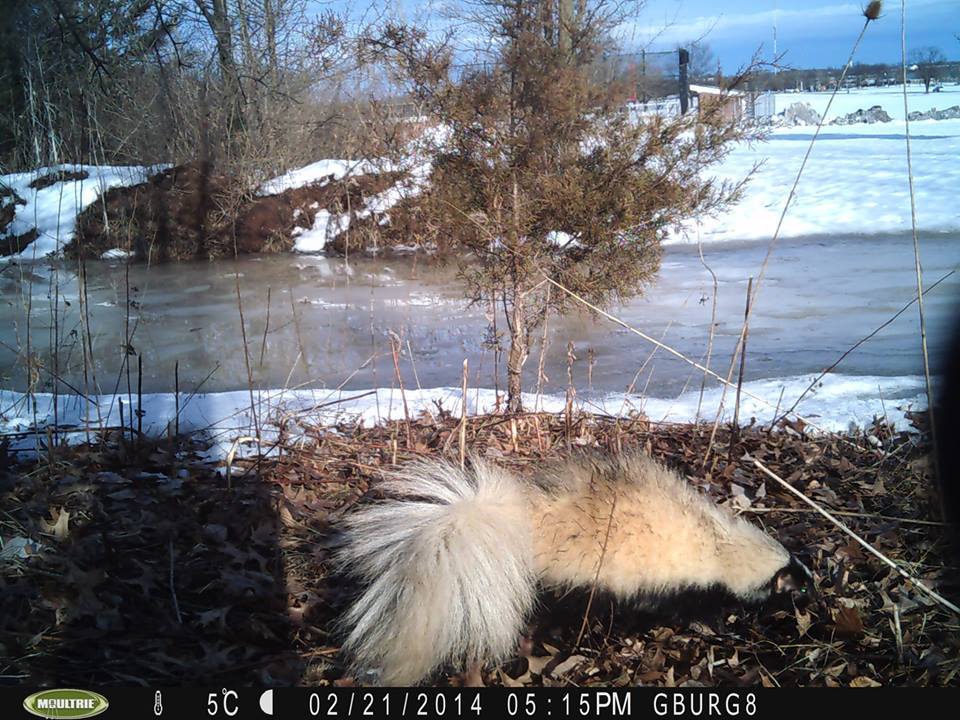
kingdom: Animalia
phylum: Chordata
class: Mammalia
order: Carnivora
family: Mephitidae
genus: Mephitis
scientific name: Mephitis mephitis
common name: Striped skunk
